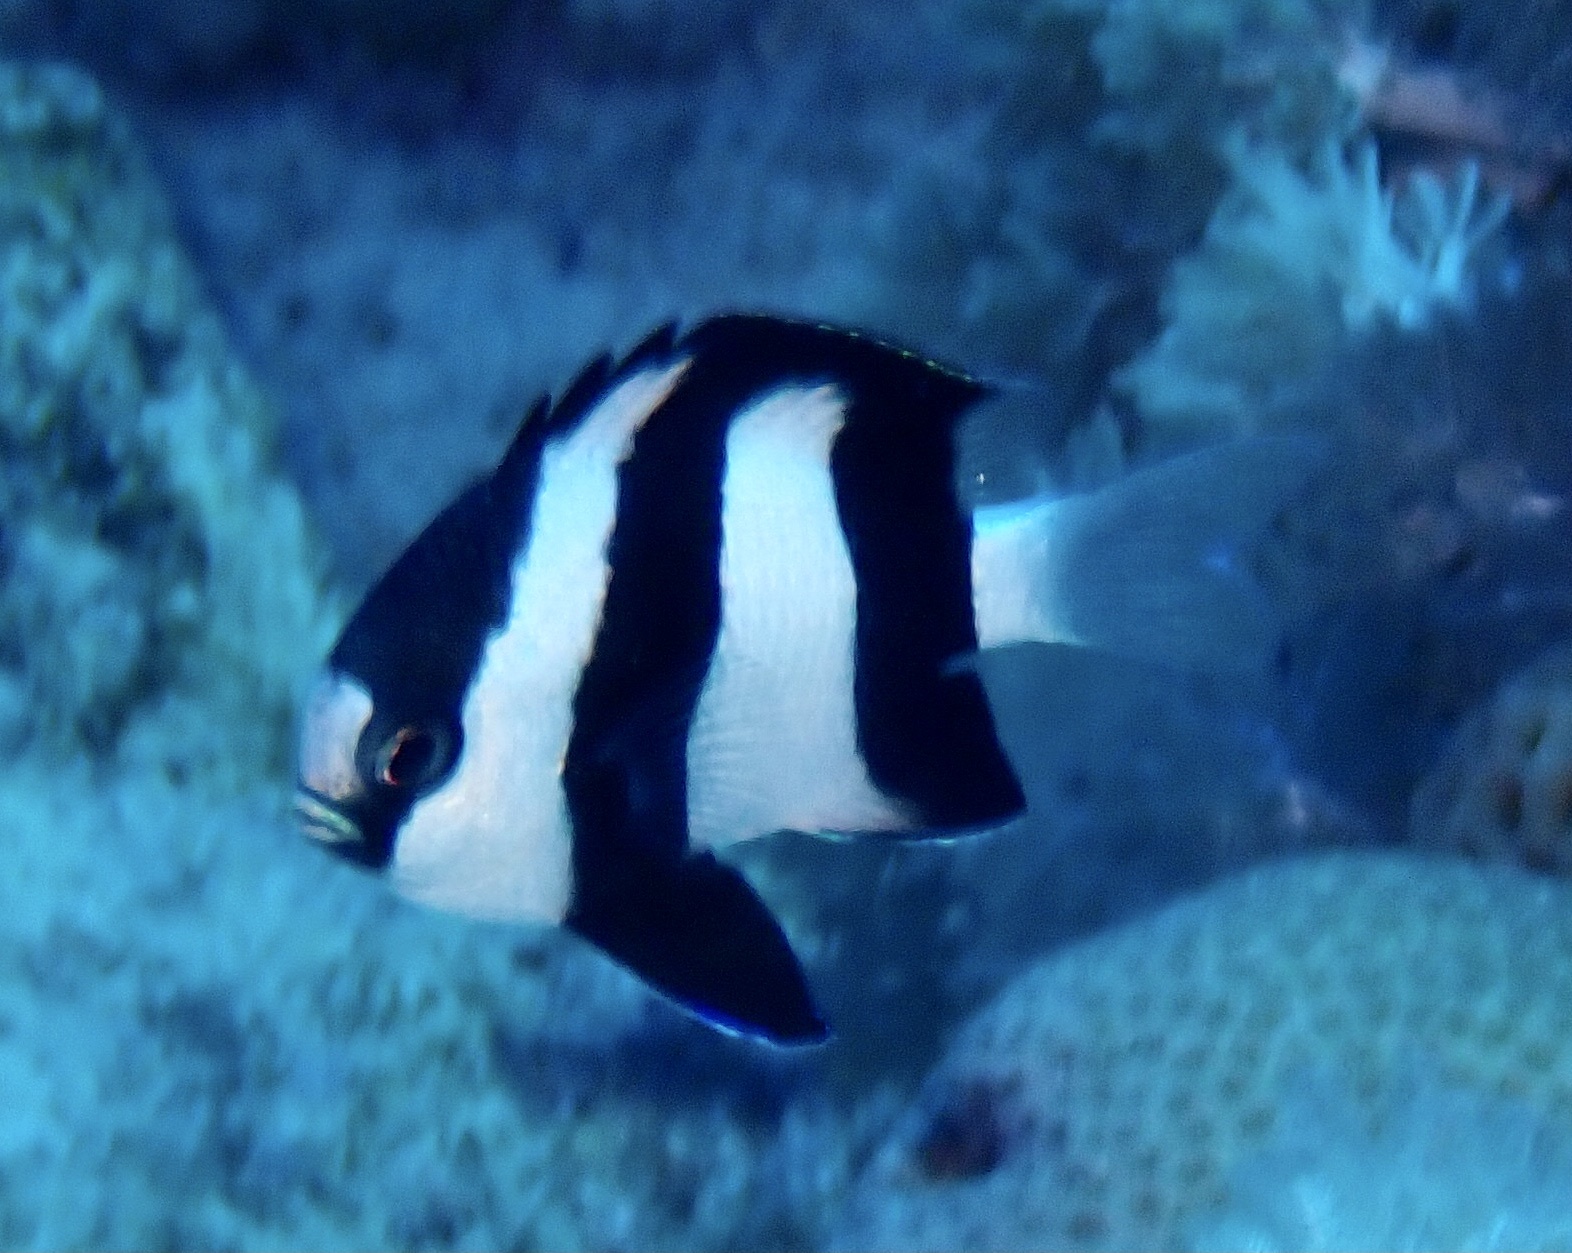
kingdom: Animalia
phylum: Chordata
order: Perciformes
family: Pomacentridae
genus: Dascyllus
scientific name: Dascyllus abudafur
